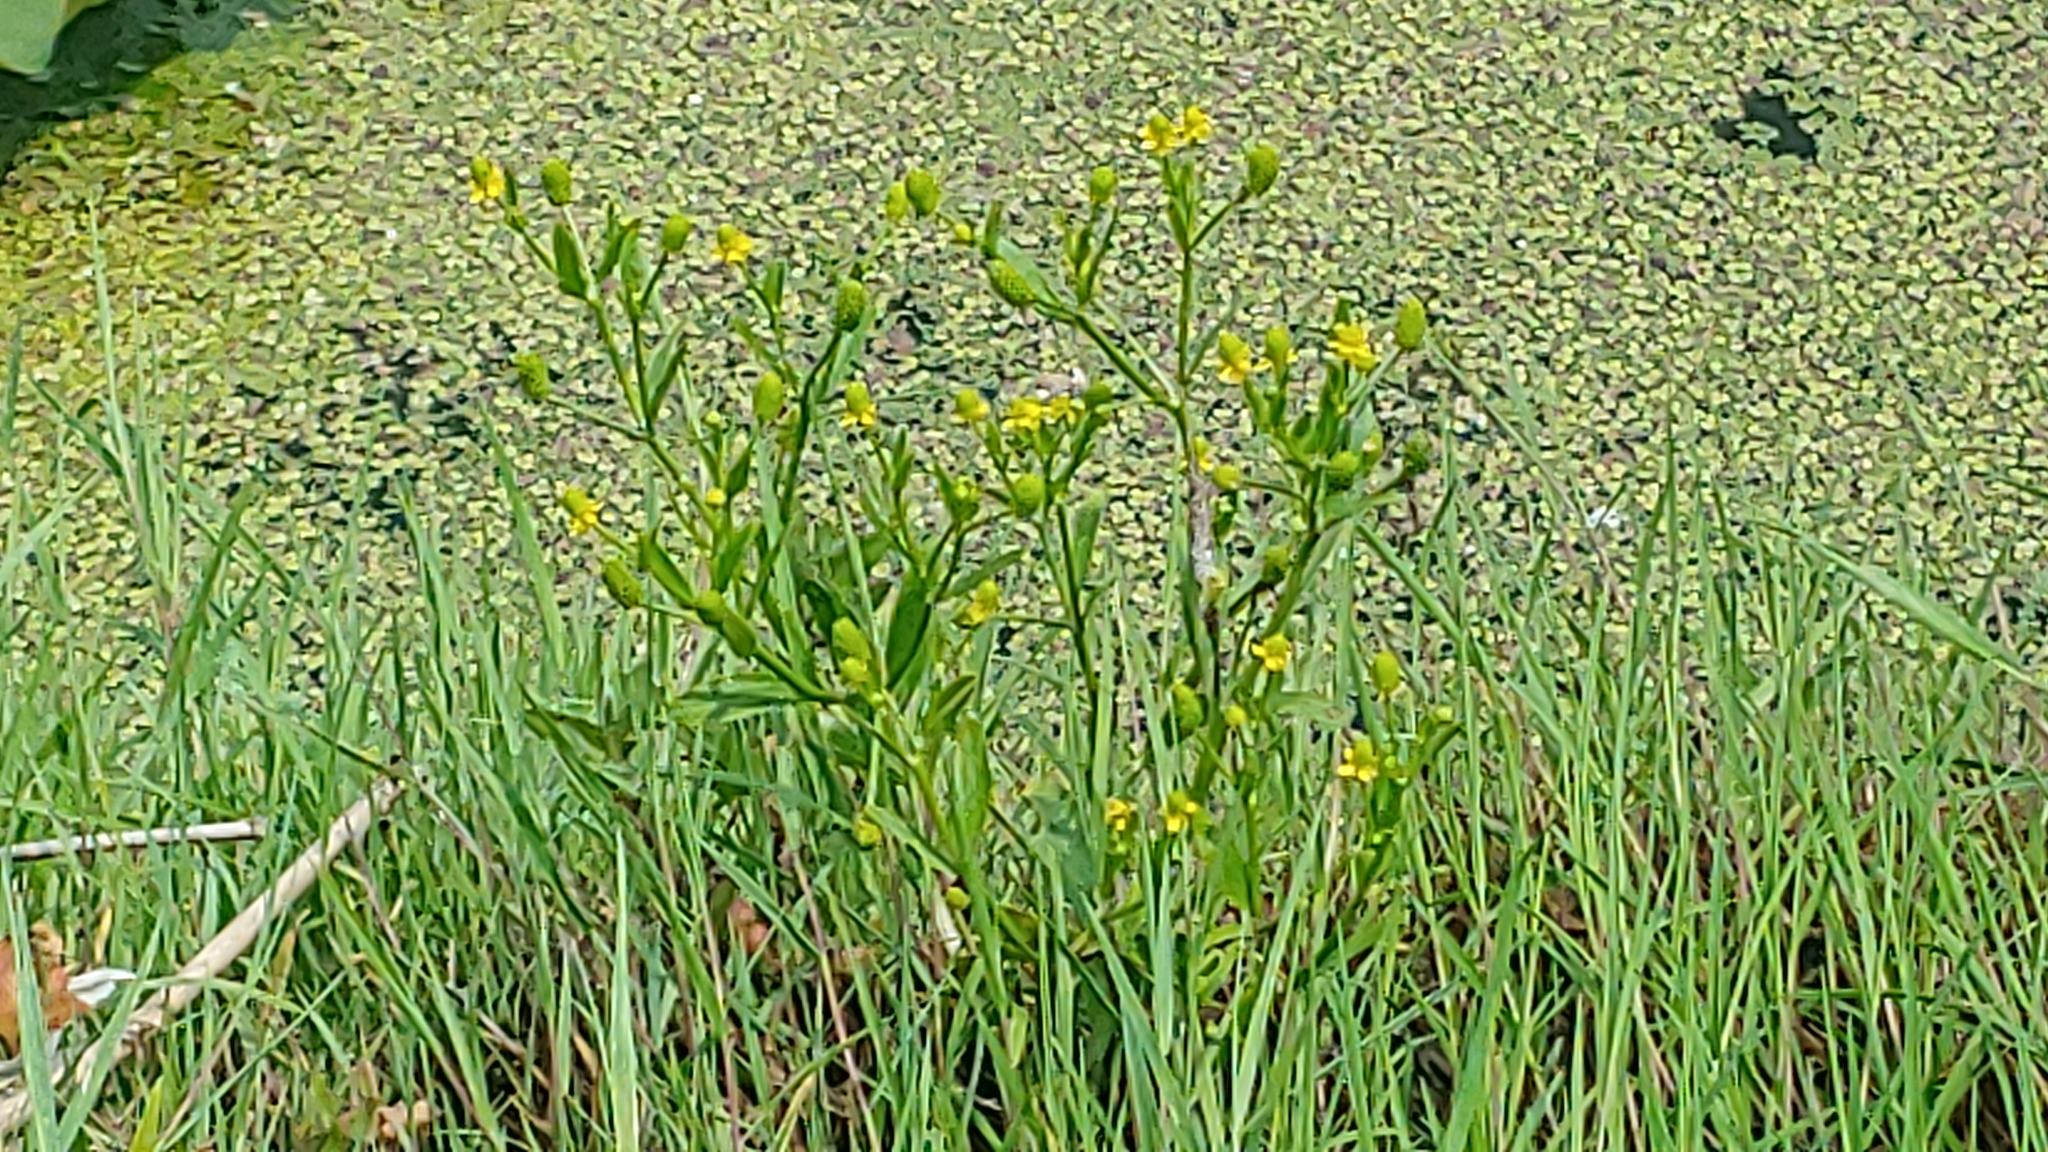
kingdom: Plantae
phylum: Tracheophyta
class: Magnoliopsida
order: Ranunculales
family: Ranunculaceae
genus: Ranunculus
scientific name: Ranunculus sceleratus
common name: Celery-leaved buttercup
